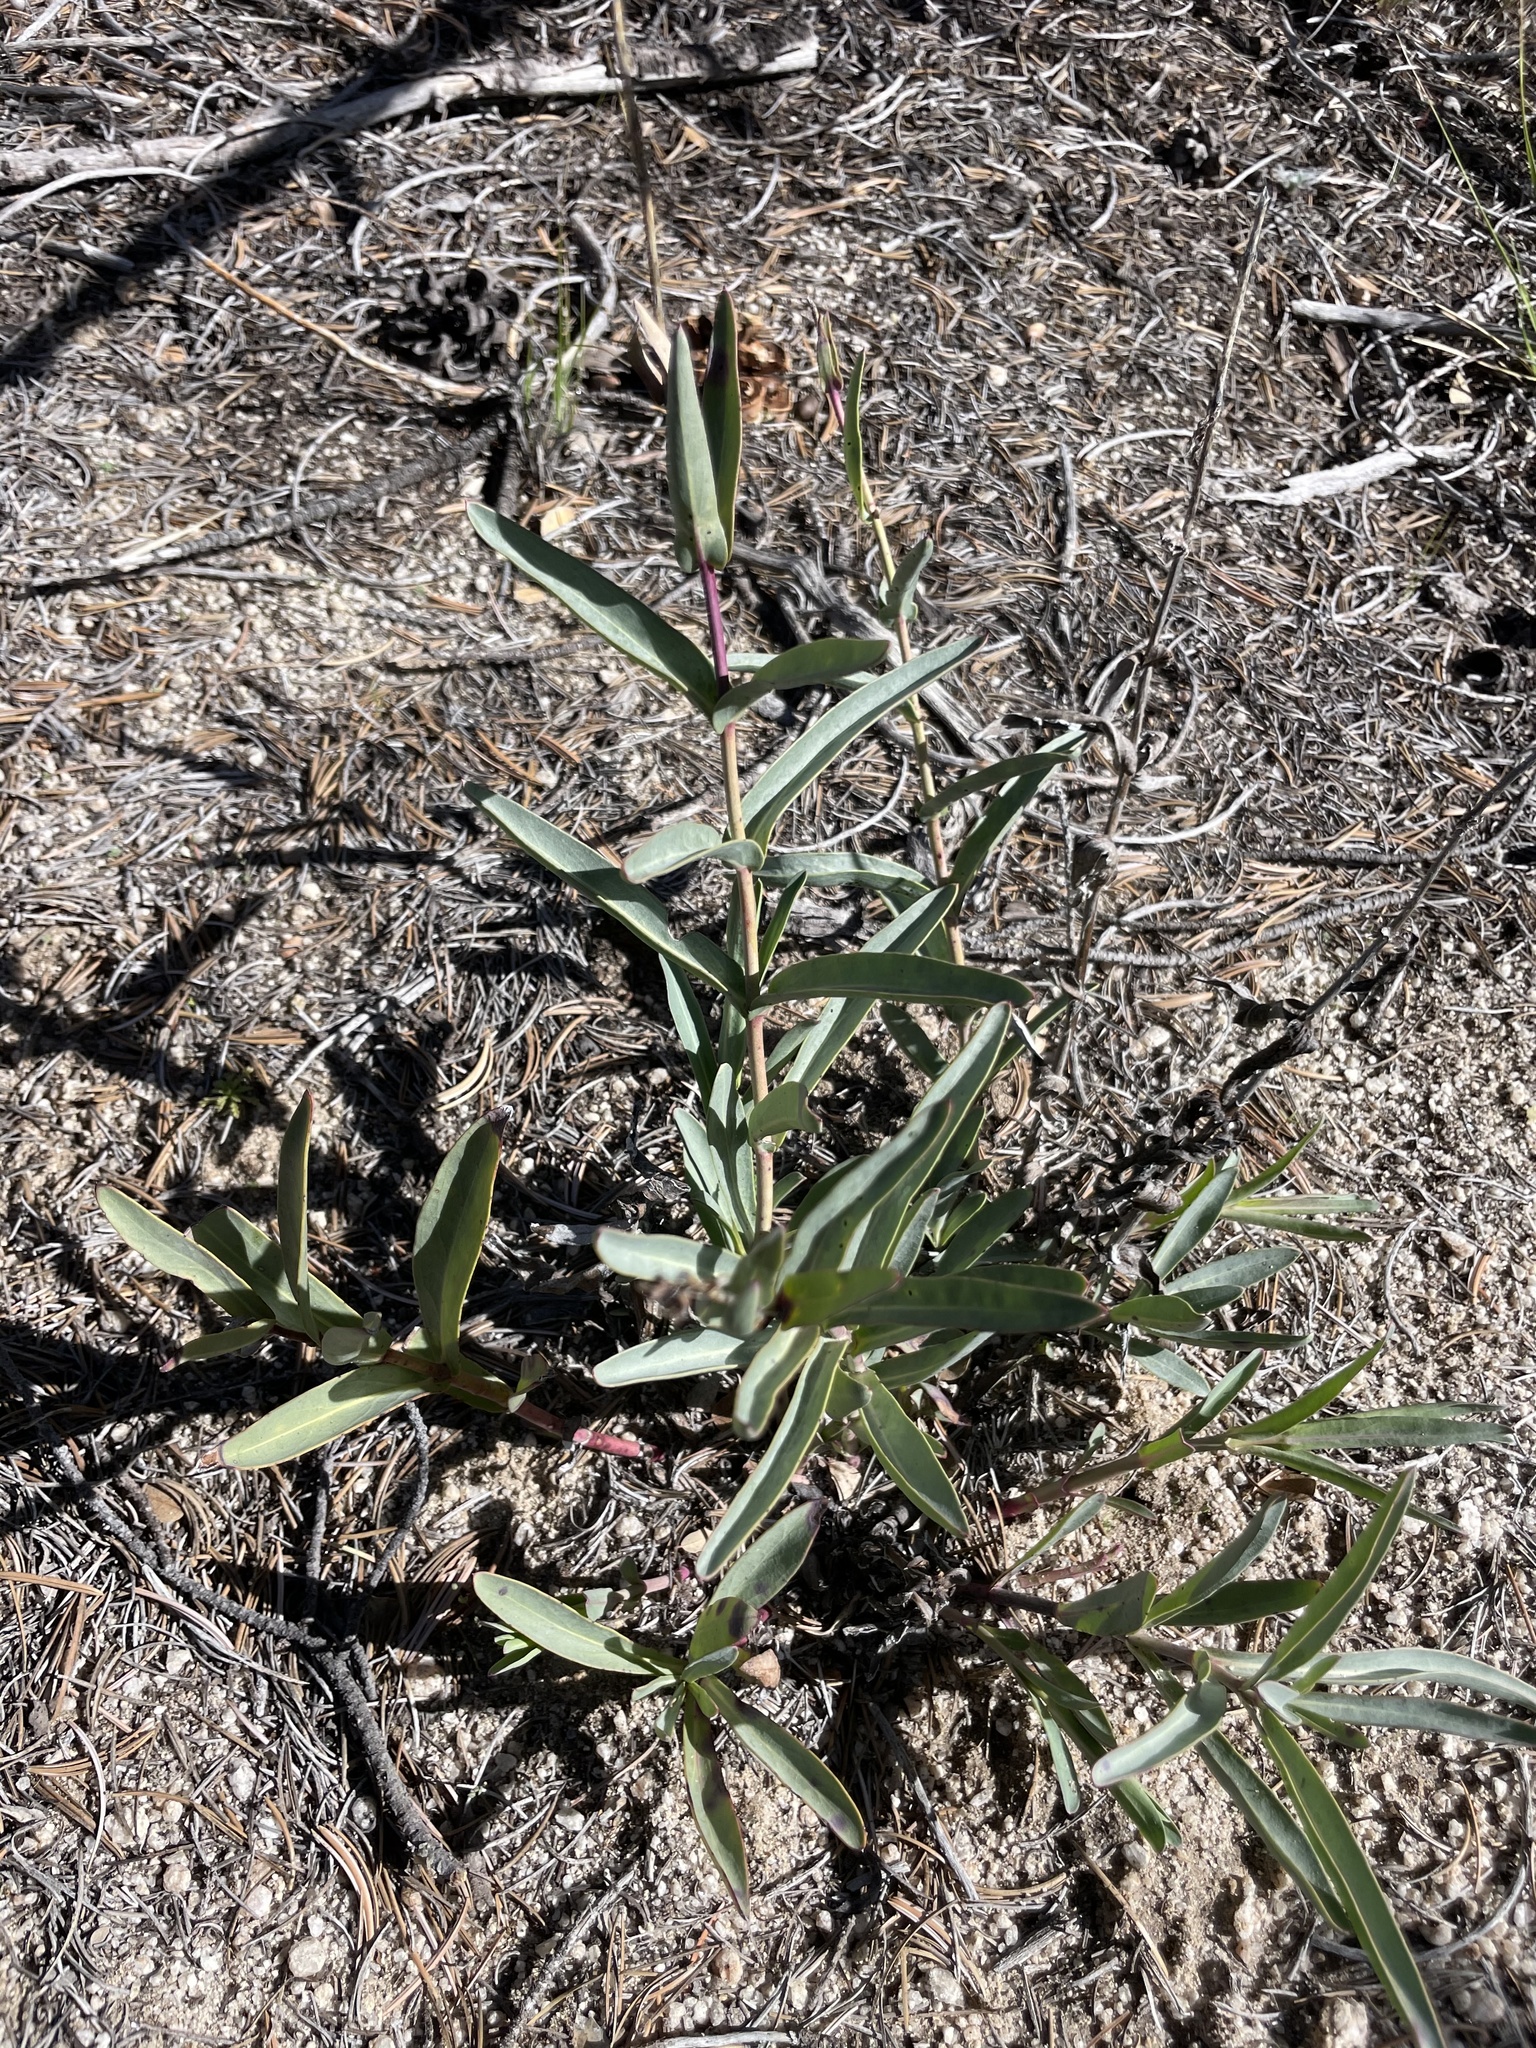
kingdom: Plantae
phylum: Tracheophyta
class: Magnoliopsida
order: Lamiales
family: Plantaginaceae
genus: Penstemon
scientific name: Penstemon centranthifolius
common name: Scarlet bugler
